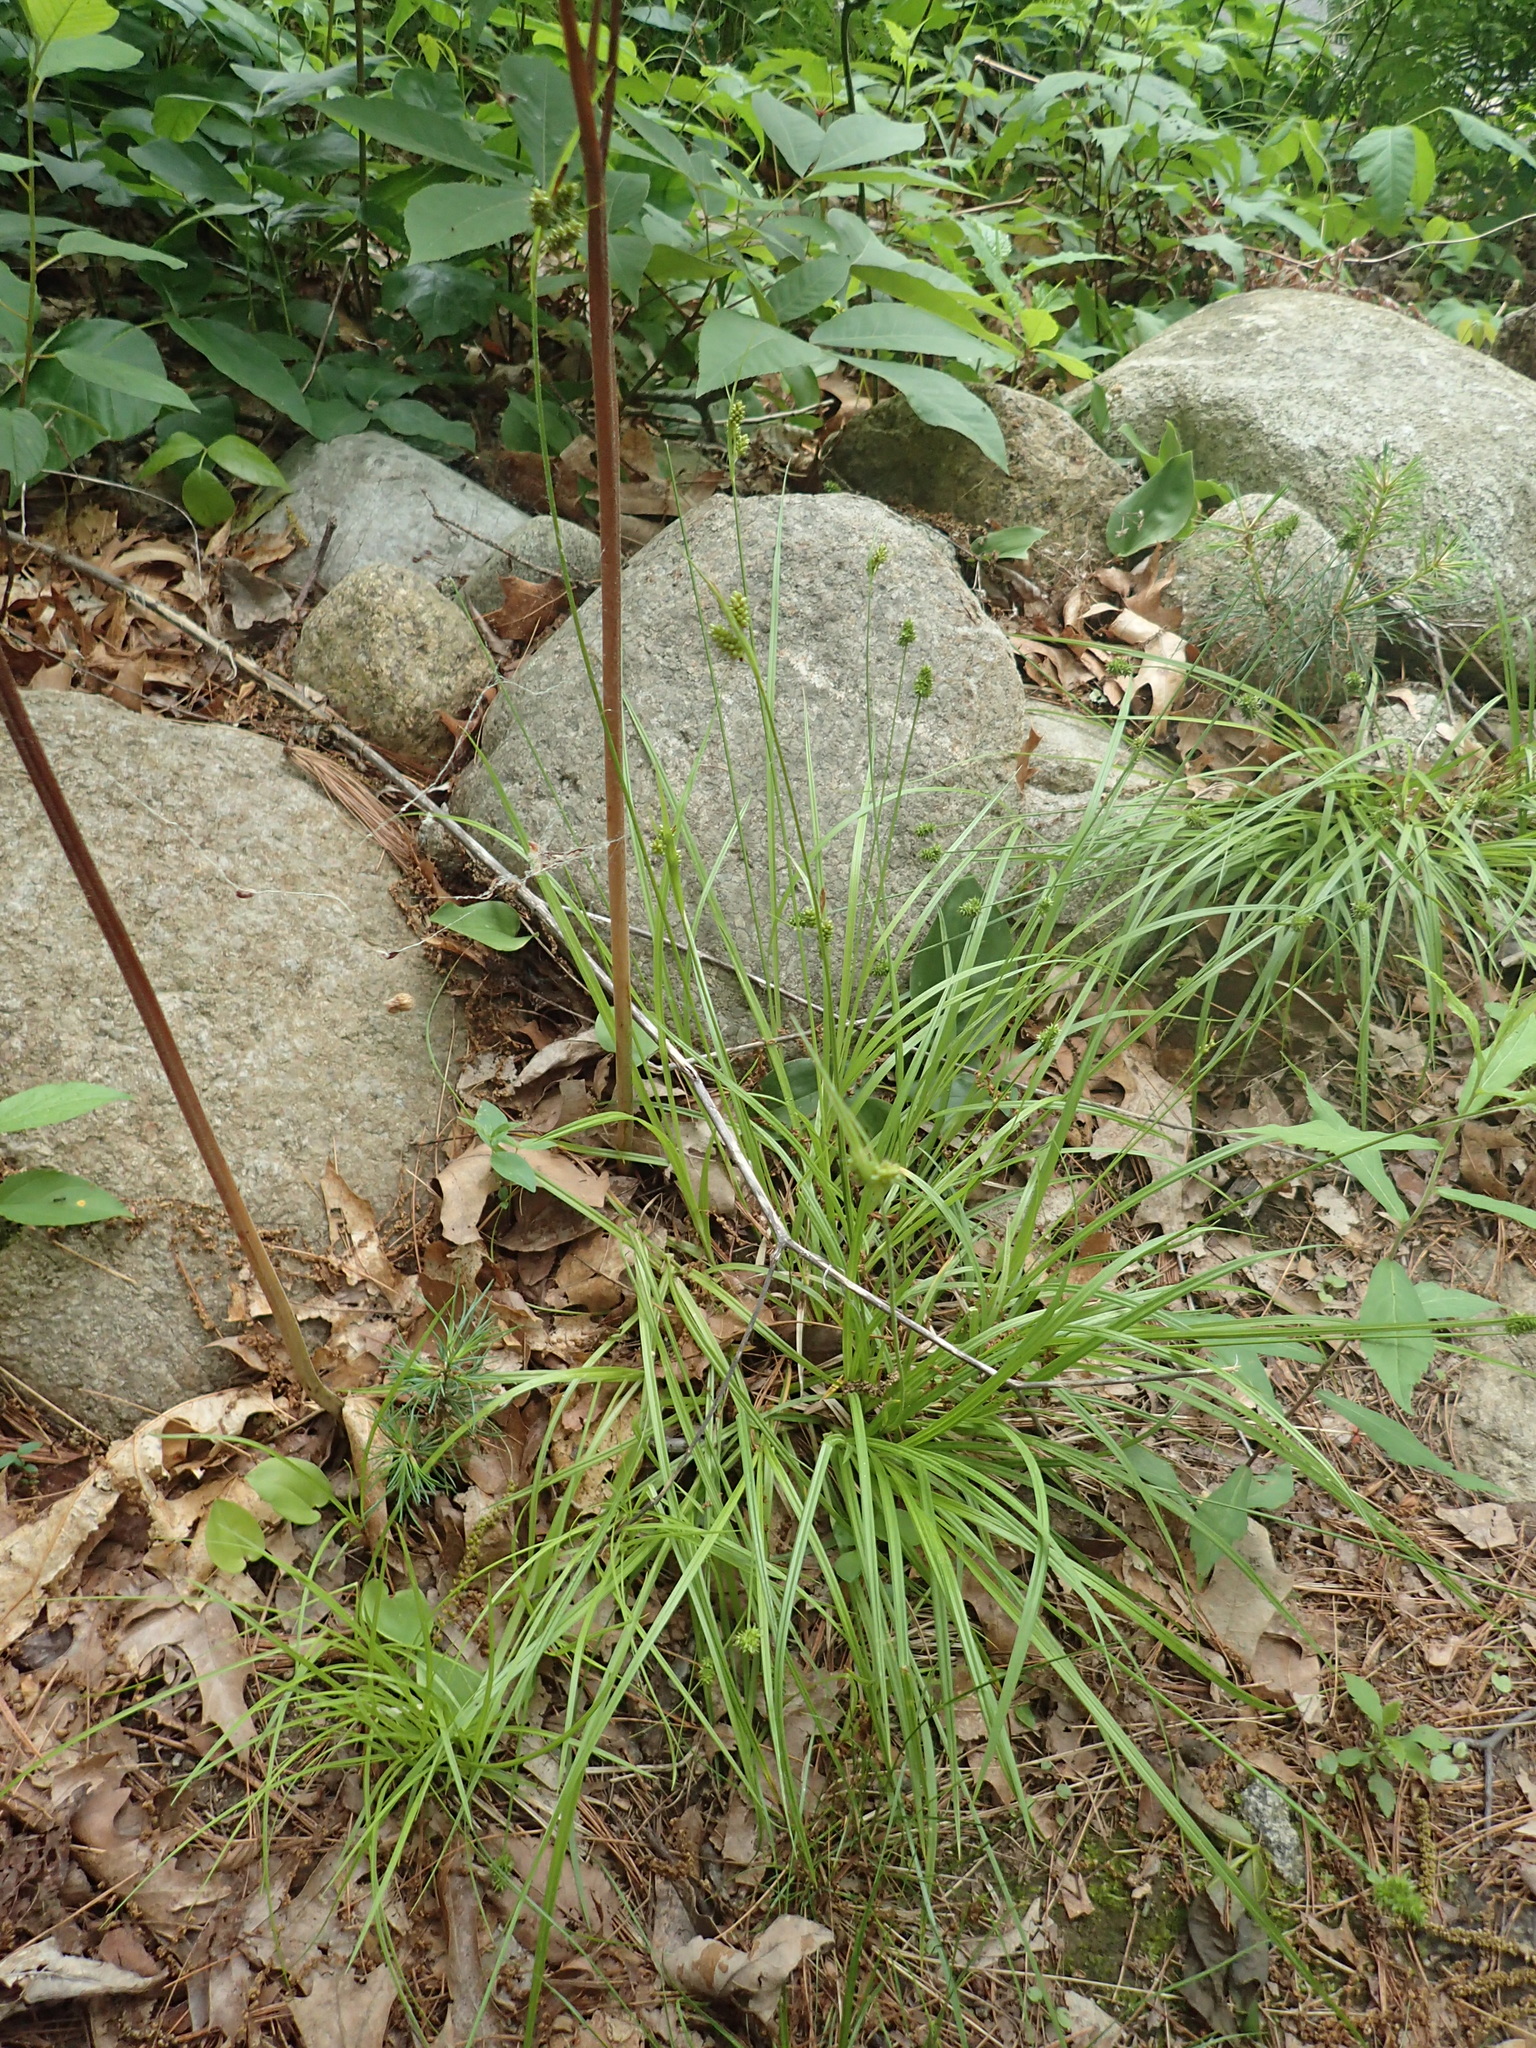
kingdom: Plantae
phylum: Tracheophyta
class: Liliopsida
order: Poales
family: Cyperaceae
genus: Carex
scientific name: Carex pallescens
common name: Pale sedge
